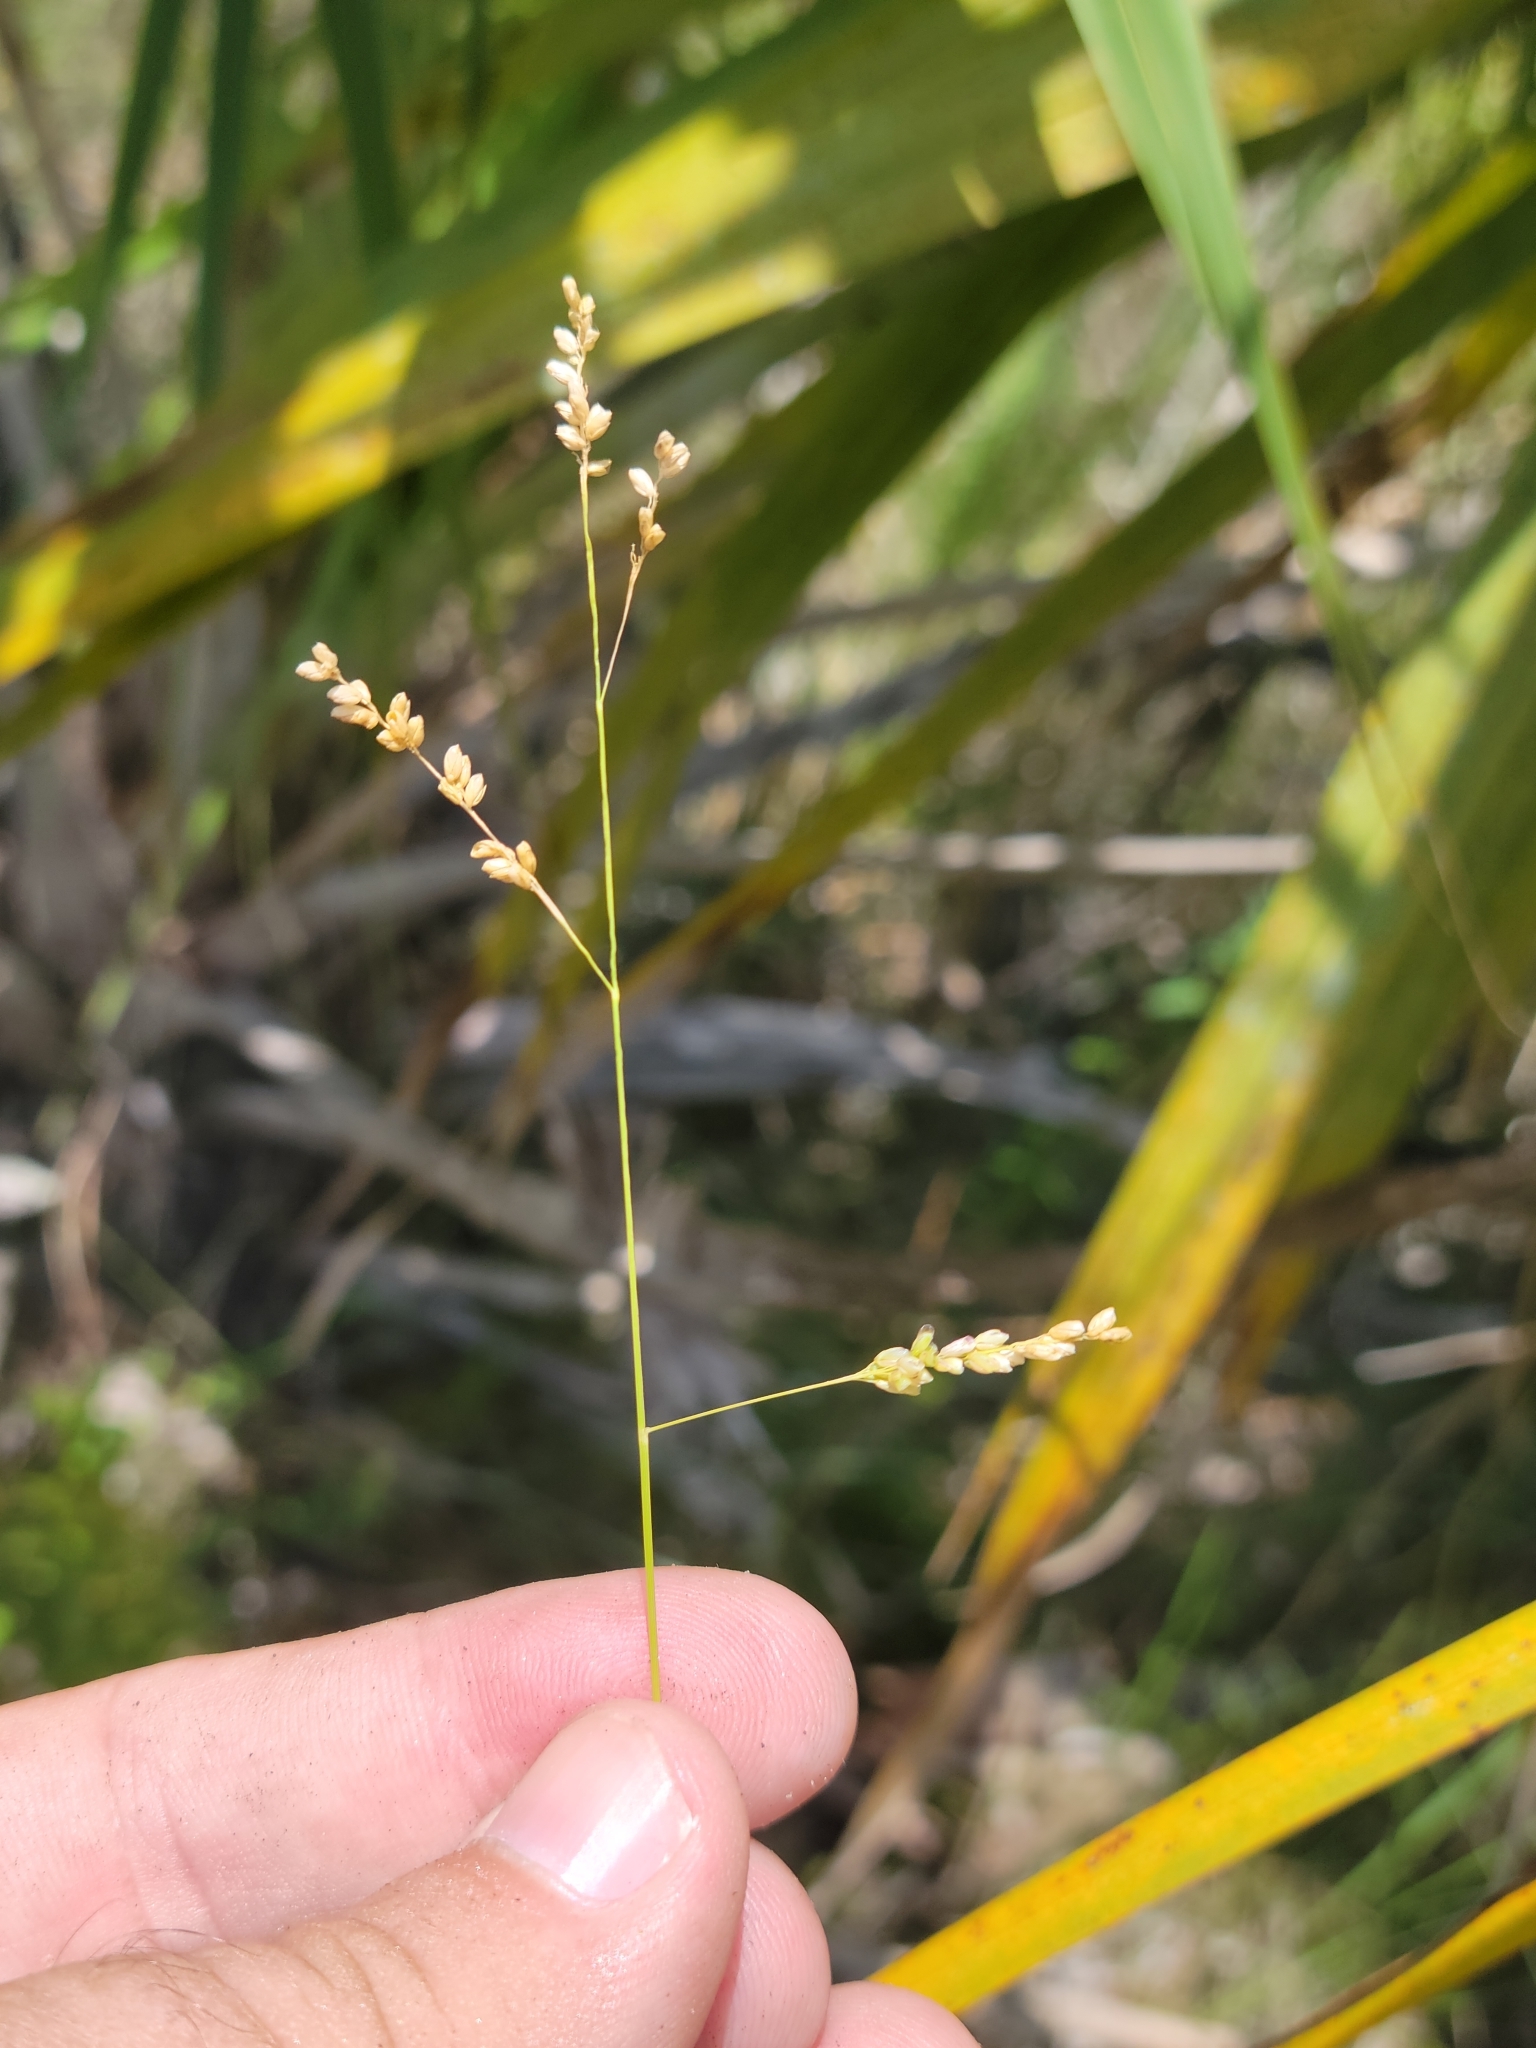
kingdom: Plantae
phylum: Tracheophyta
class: Liliopsida
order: Poales
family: Poaceae
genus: Steinchisma
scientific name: Steinchisma hians
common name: Gaping panic grass
